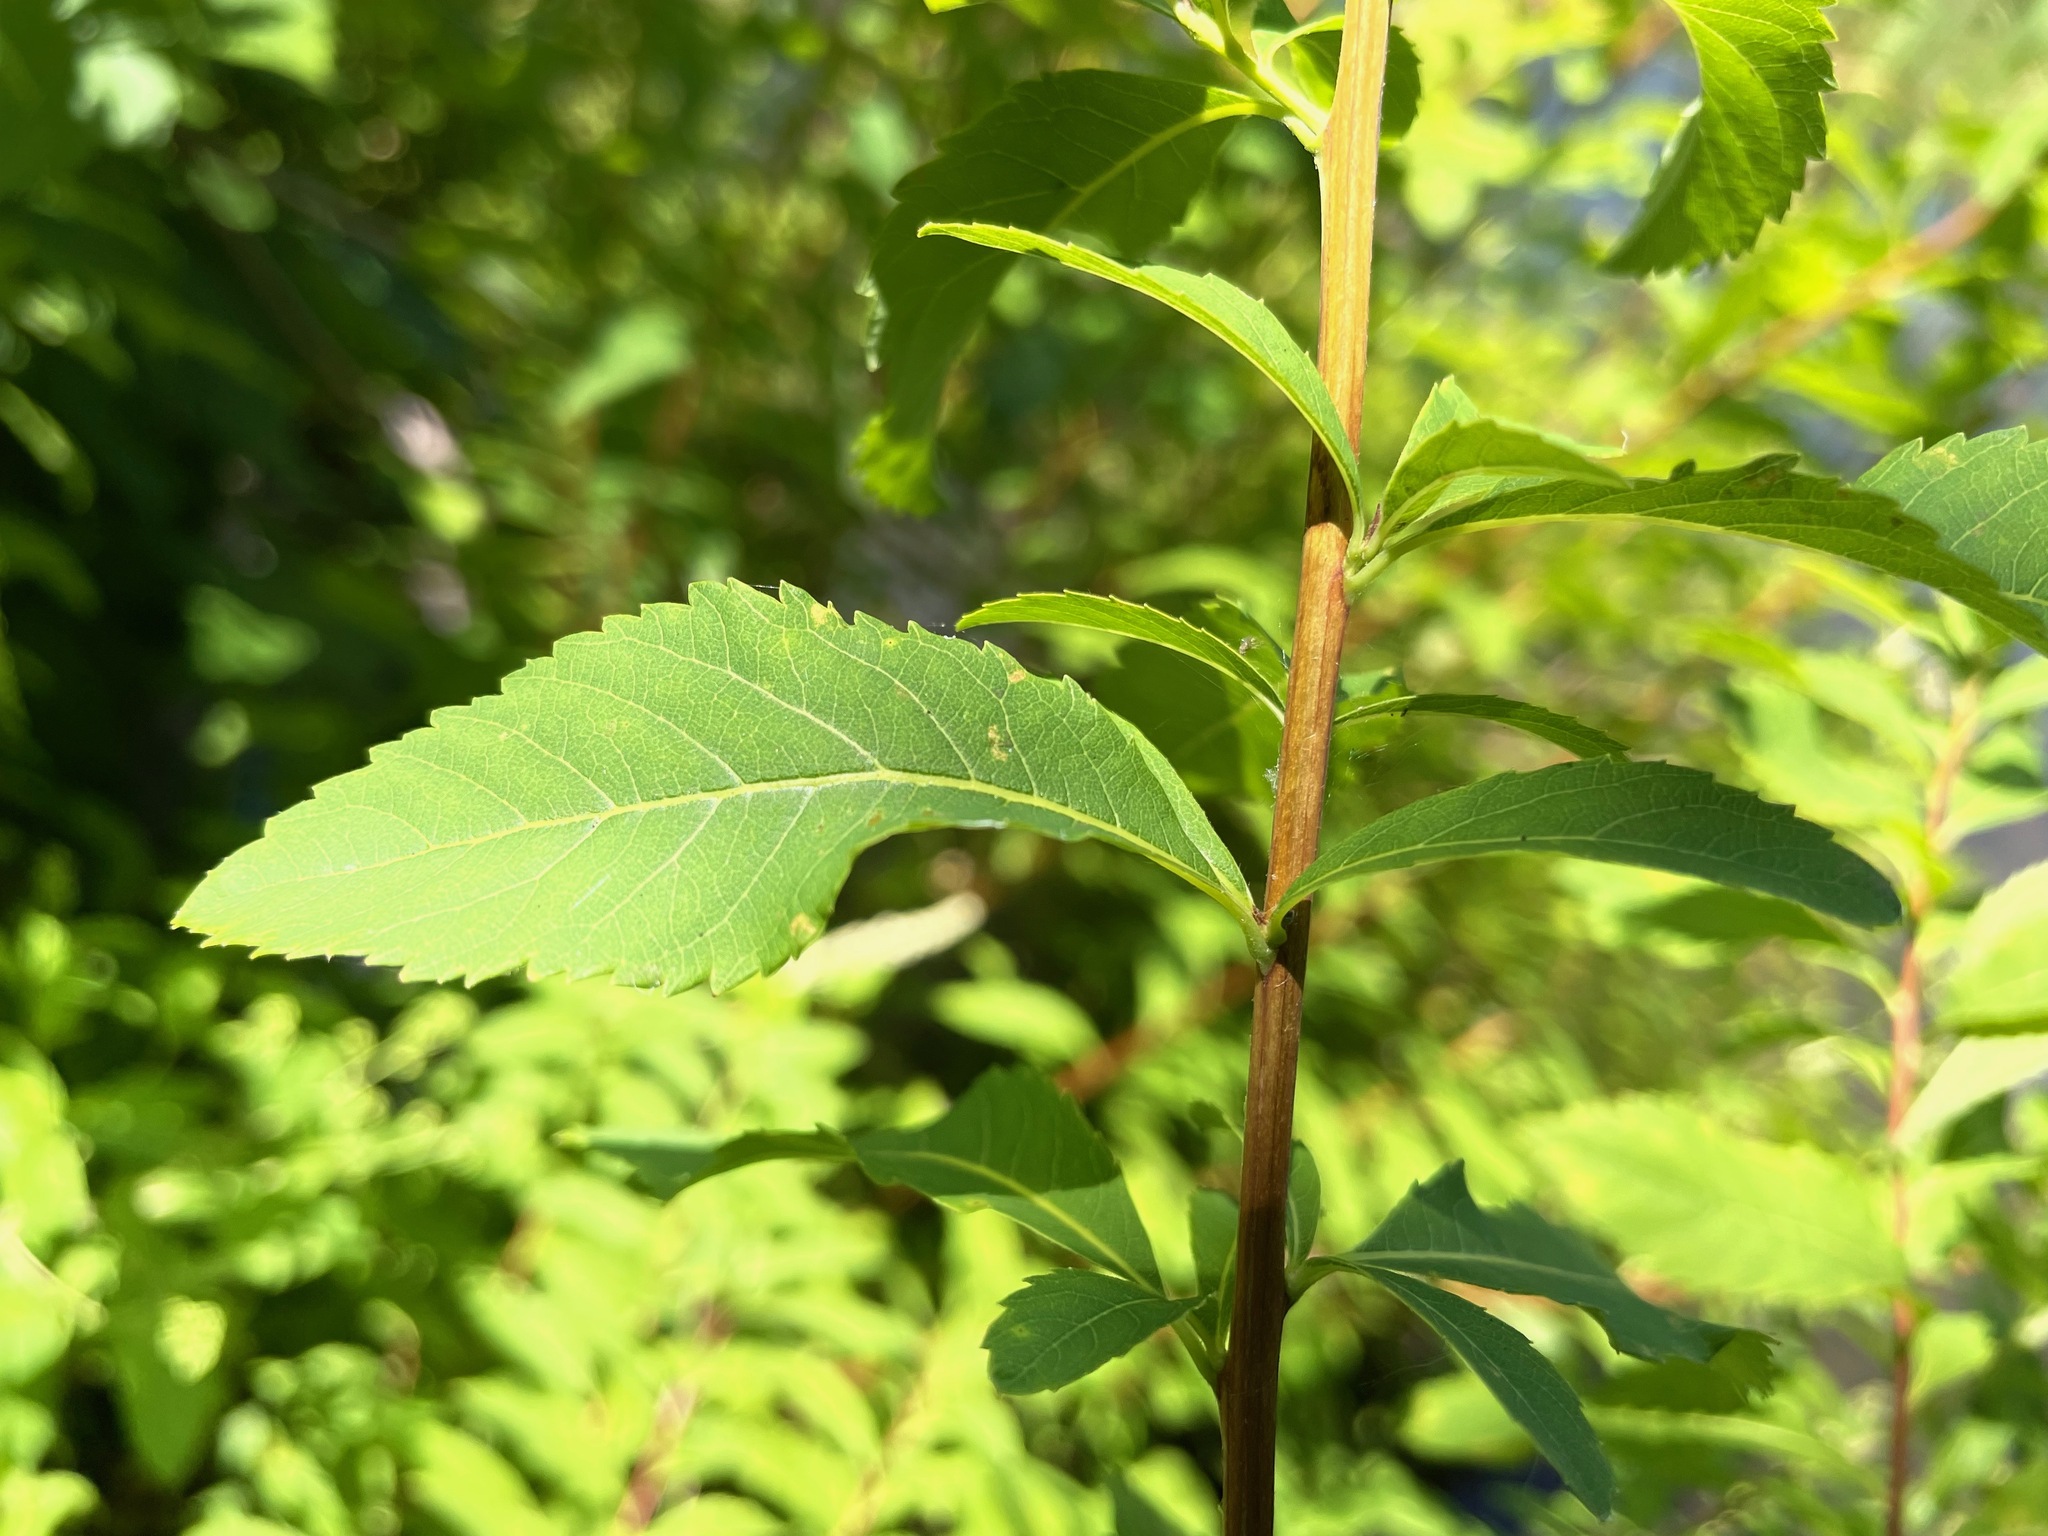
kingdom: Plantae
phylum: Tracheophyta
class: Magnoliopsida
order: Rosales
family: Rosaceae
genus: Spiraea
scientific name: Spiraea alba
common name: Pale bridewort
